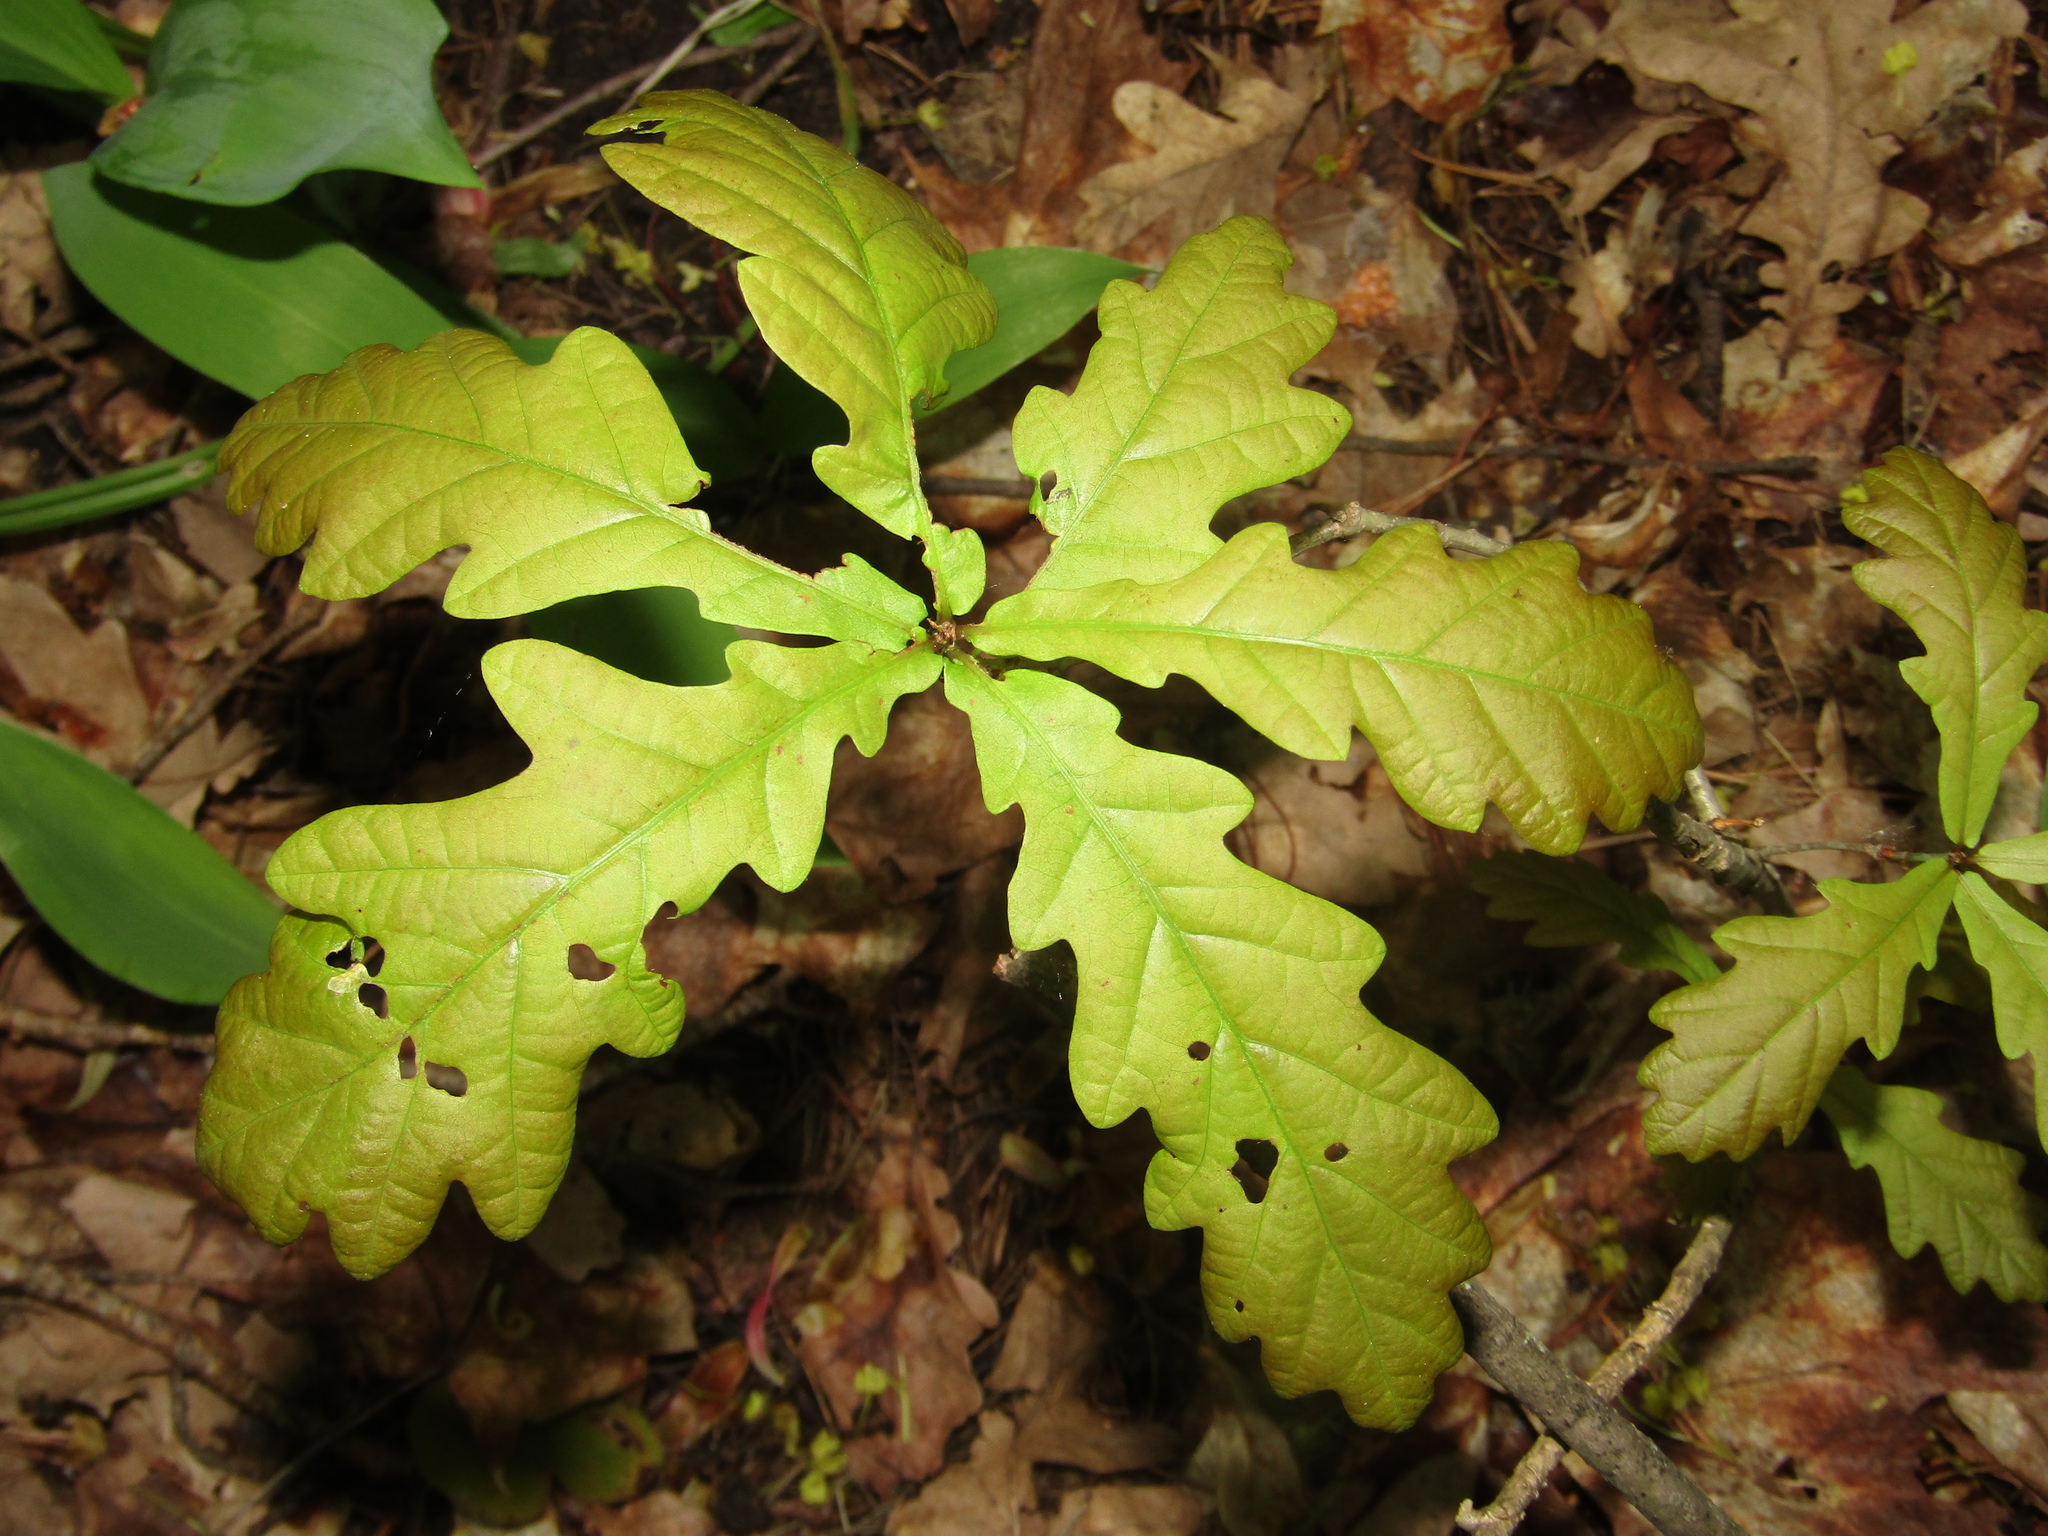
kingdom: Plantae
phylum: Tracheophyta
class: Magnoliopsida
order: Fagales
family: Fagaceae
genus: Quercus
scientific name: Quercus robur
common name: Pedunculate oak
